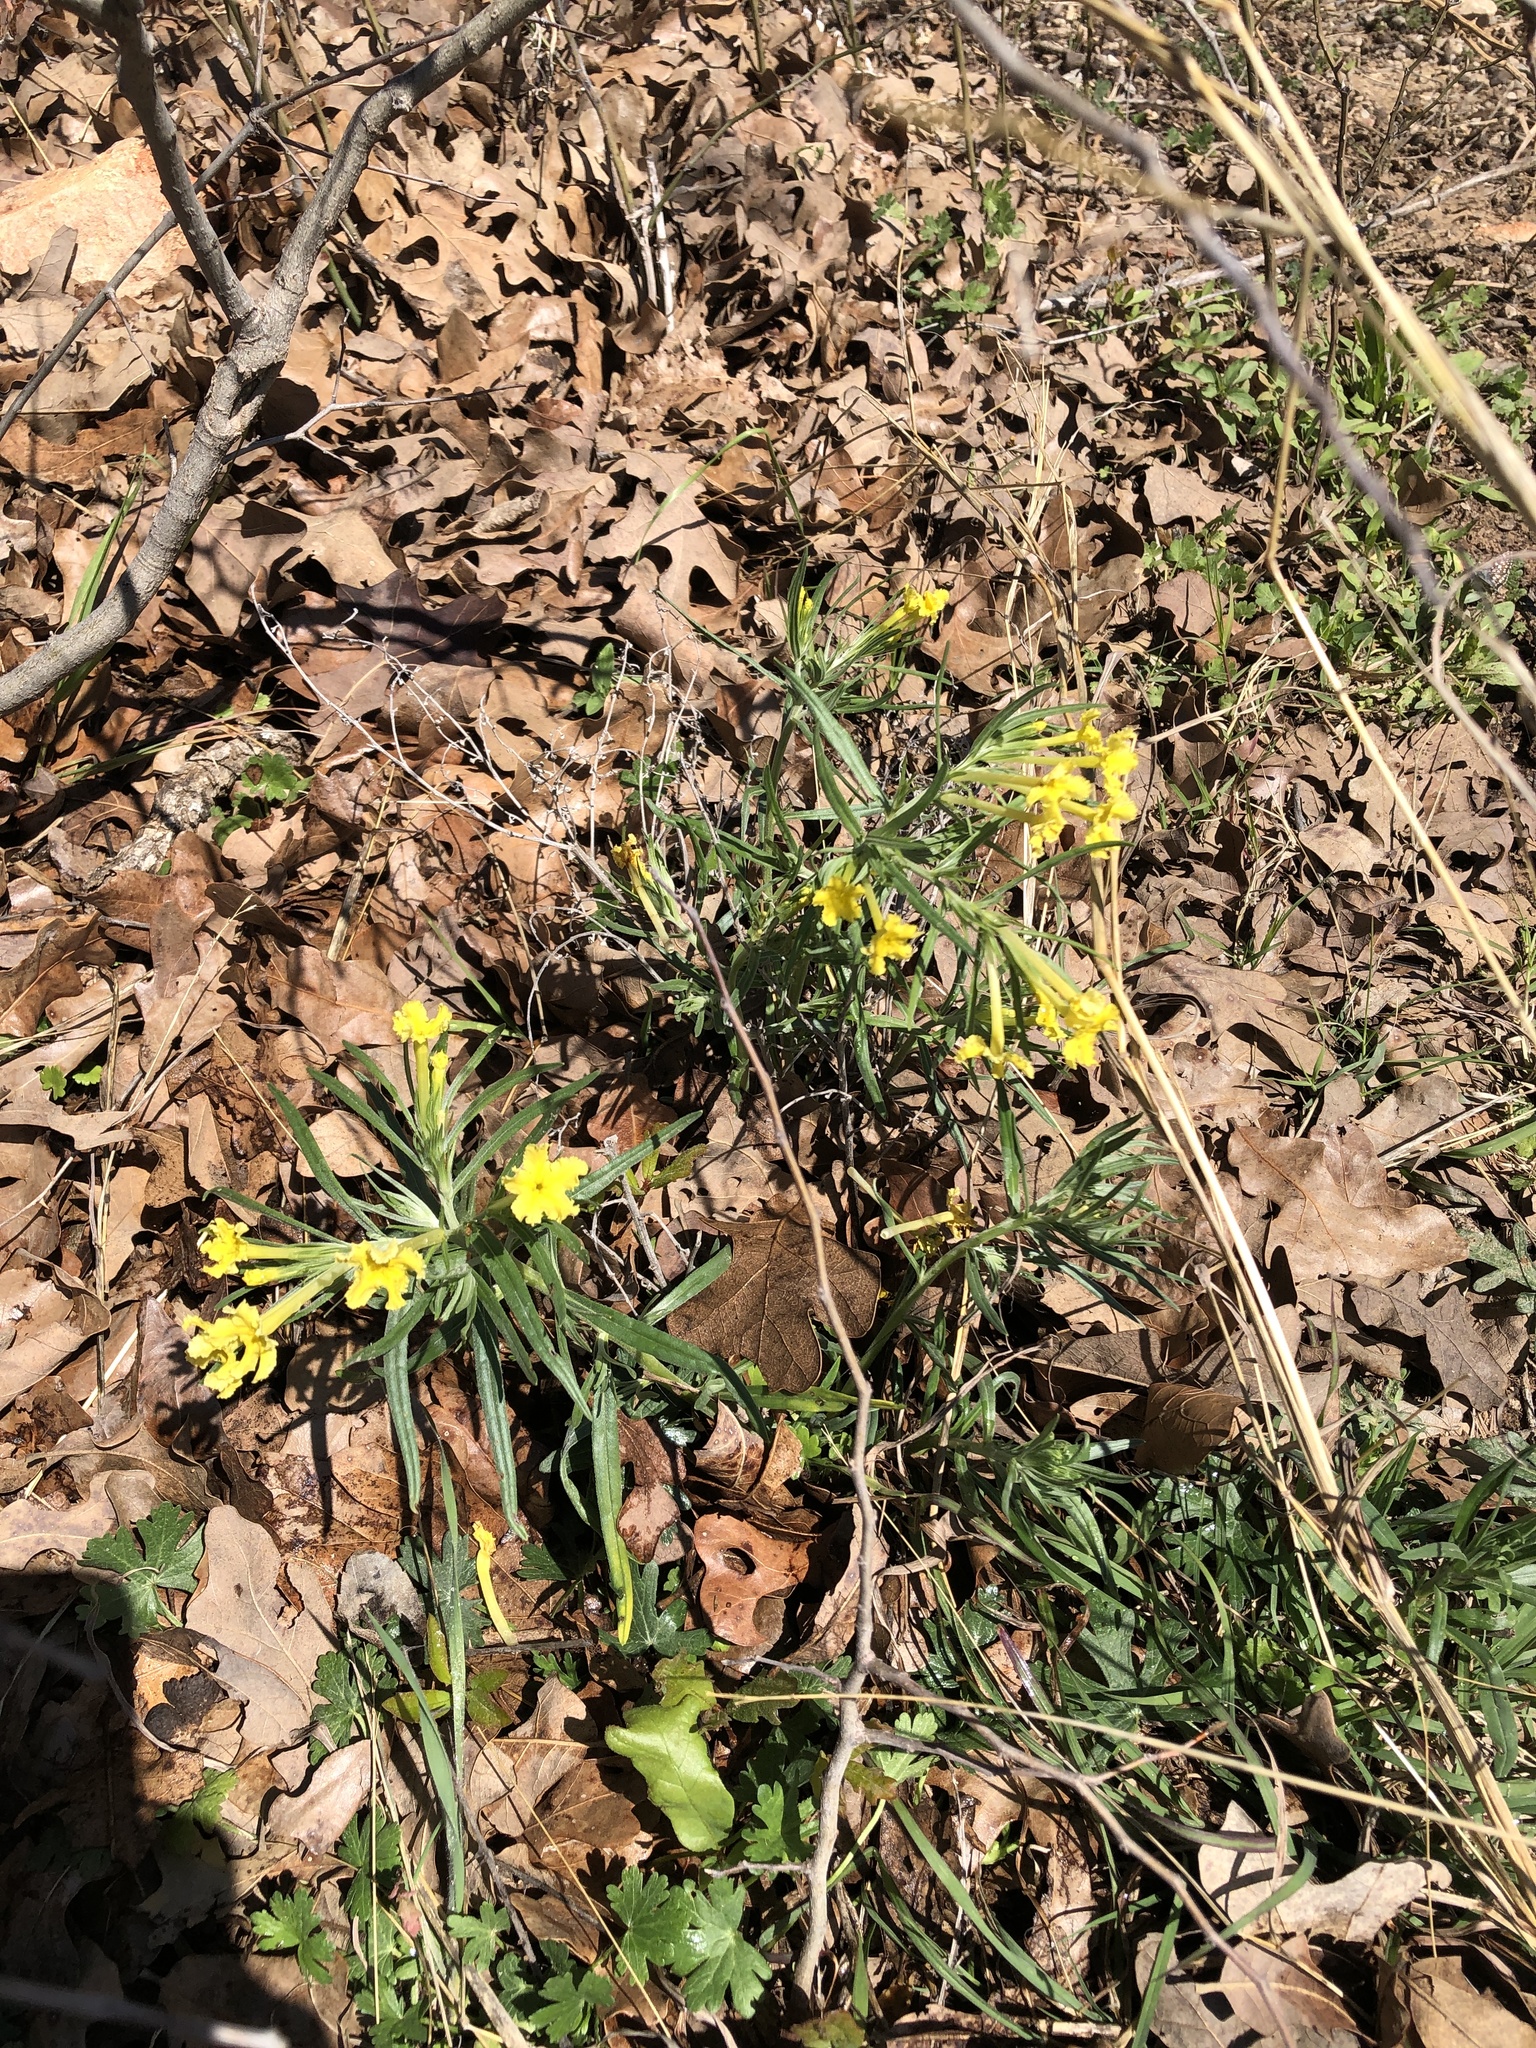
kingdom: Plantae
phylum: Tracheophyta
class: Magnoliopsida
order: Boraginales
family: Boraginaceae
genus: Lithospermum
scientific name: Lithospermum incisum
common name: Fringed gromwell
